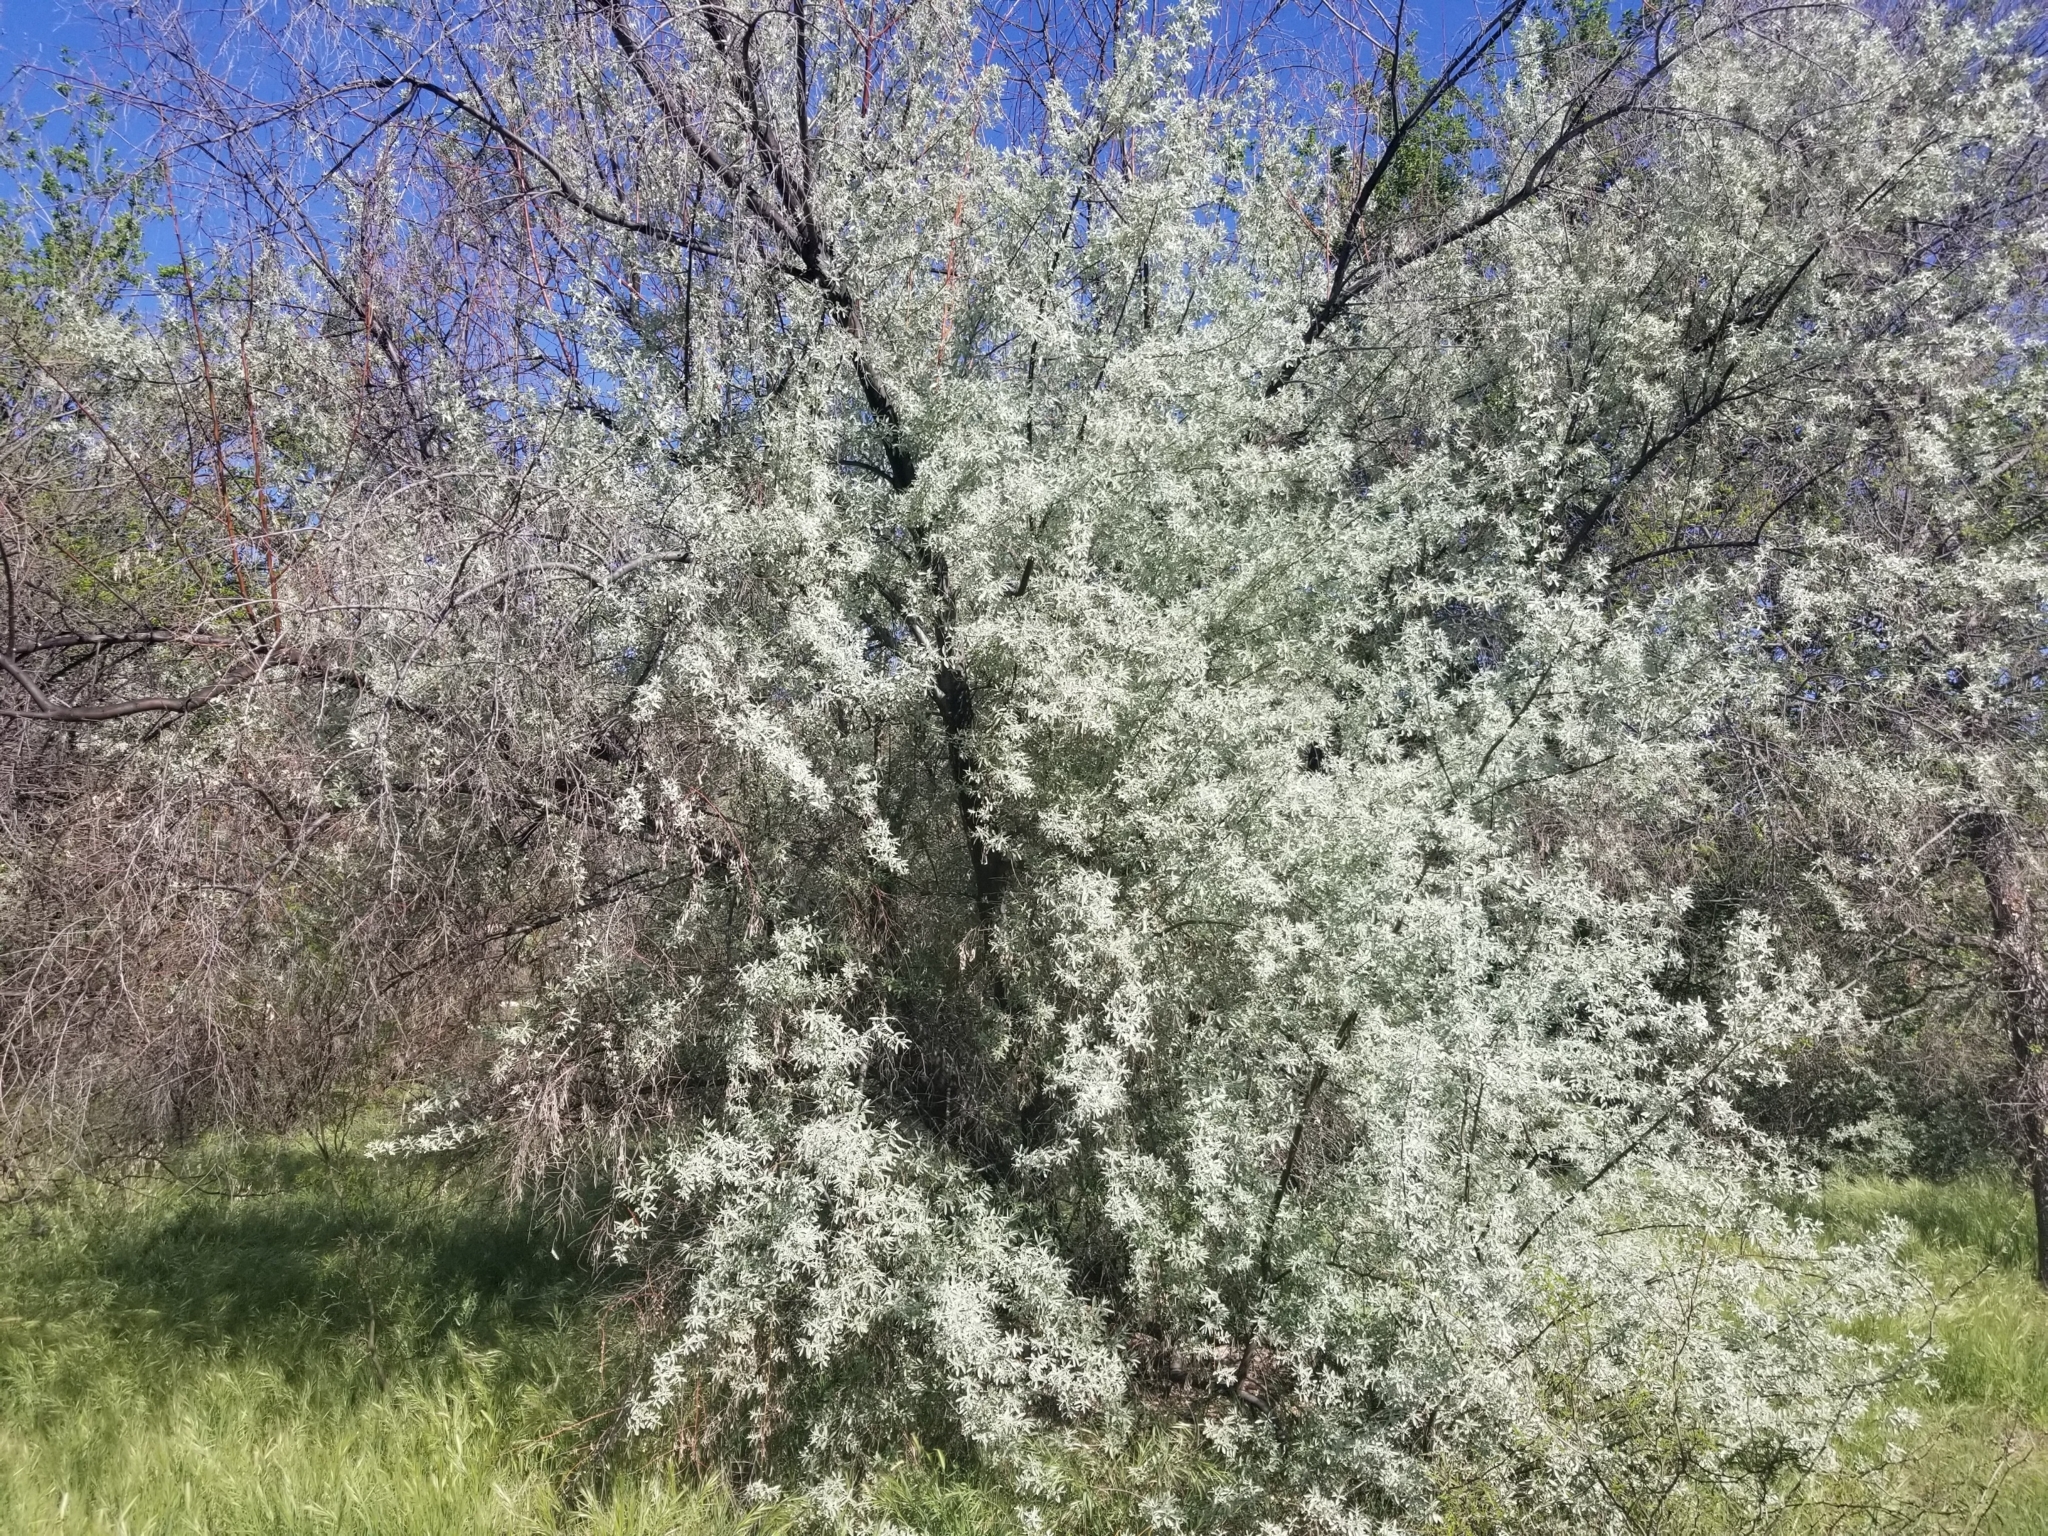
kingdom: Plantae
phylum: Tracheophyta
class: Magnoliopsida
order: Rosales
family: Elaeagnaceae
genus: Elaeagnus
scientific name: Elaeagnus angustifolia
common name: Russian olive
